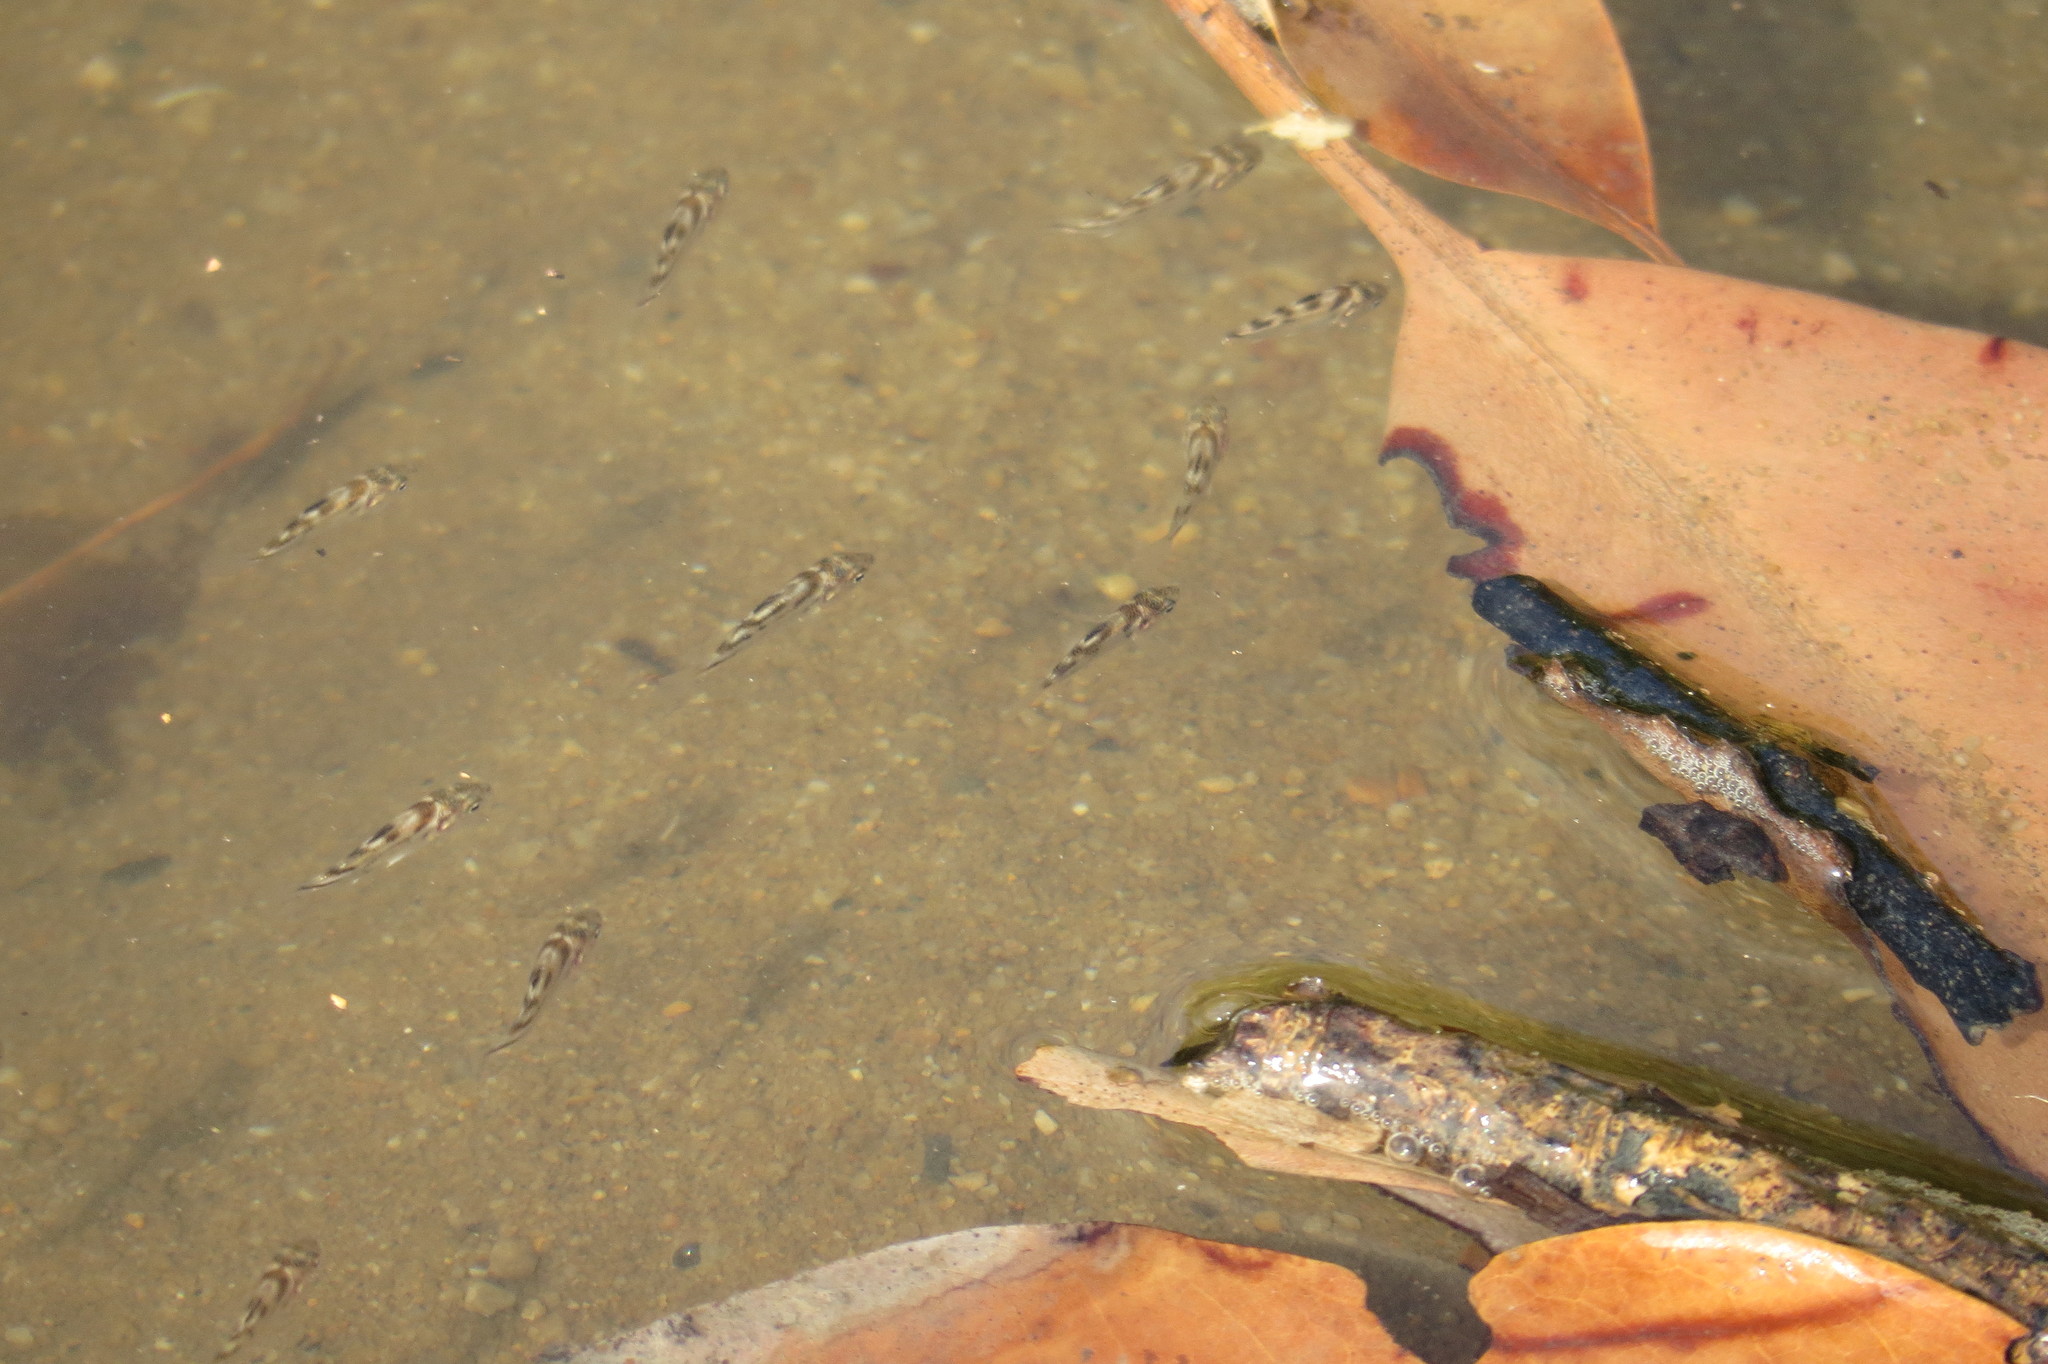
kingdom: Animalia
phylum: Chordata
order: Perciformes
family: Terapontidae
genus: Terapon
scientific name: Terapon jarbua
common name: Jarbua terapon
